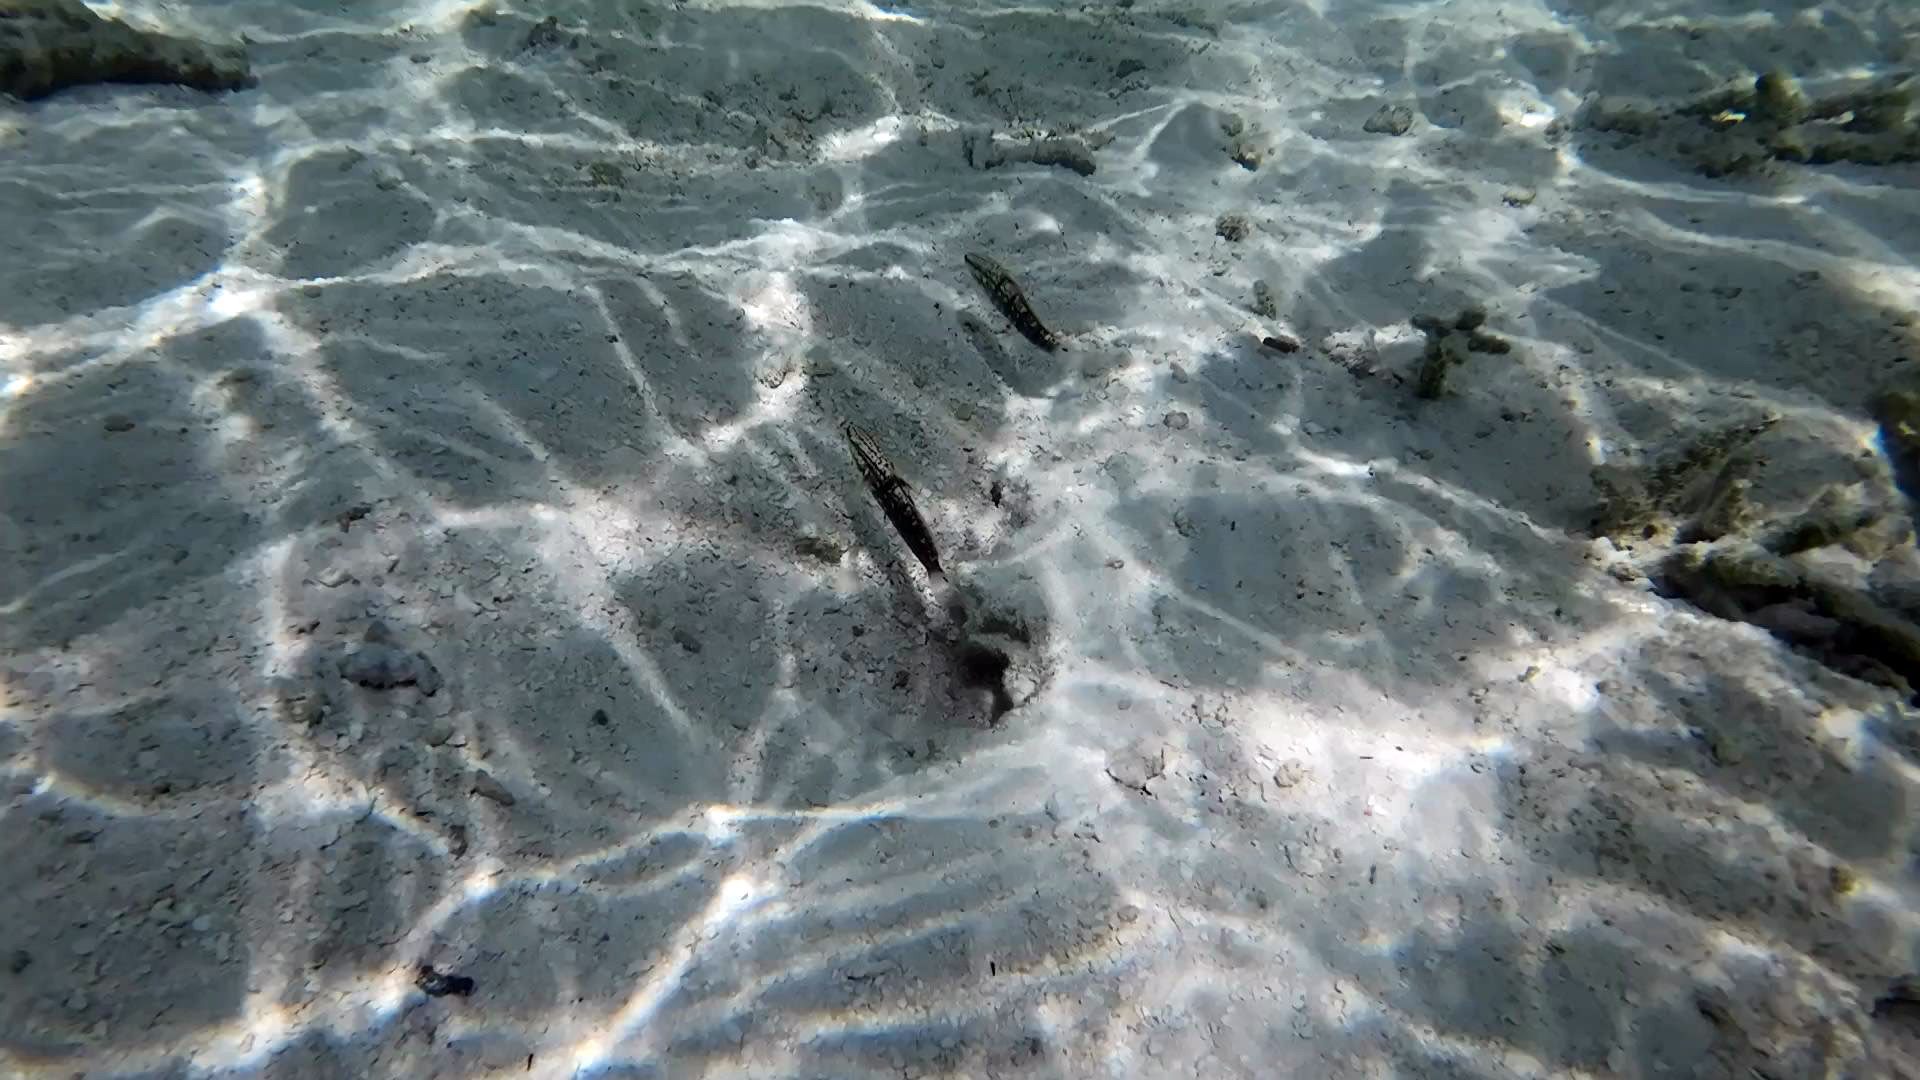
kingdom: Animalia
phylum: Chordata
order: Perciformes
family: Gobiidae
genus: Amblygobius
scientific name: Amblygobius semicinctus
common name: Halfbarred goby
